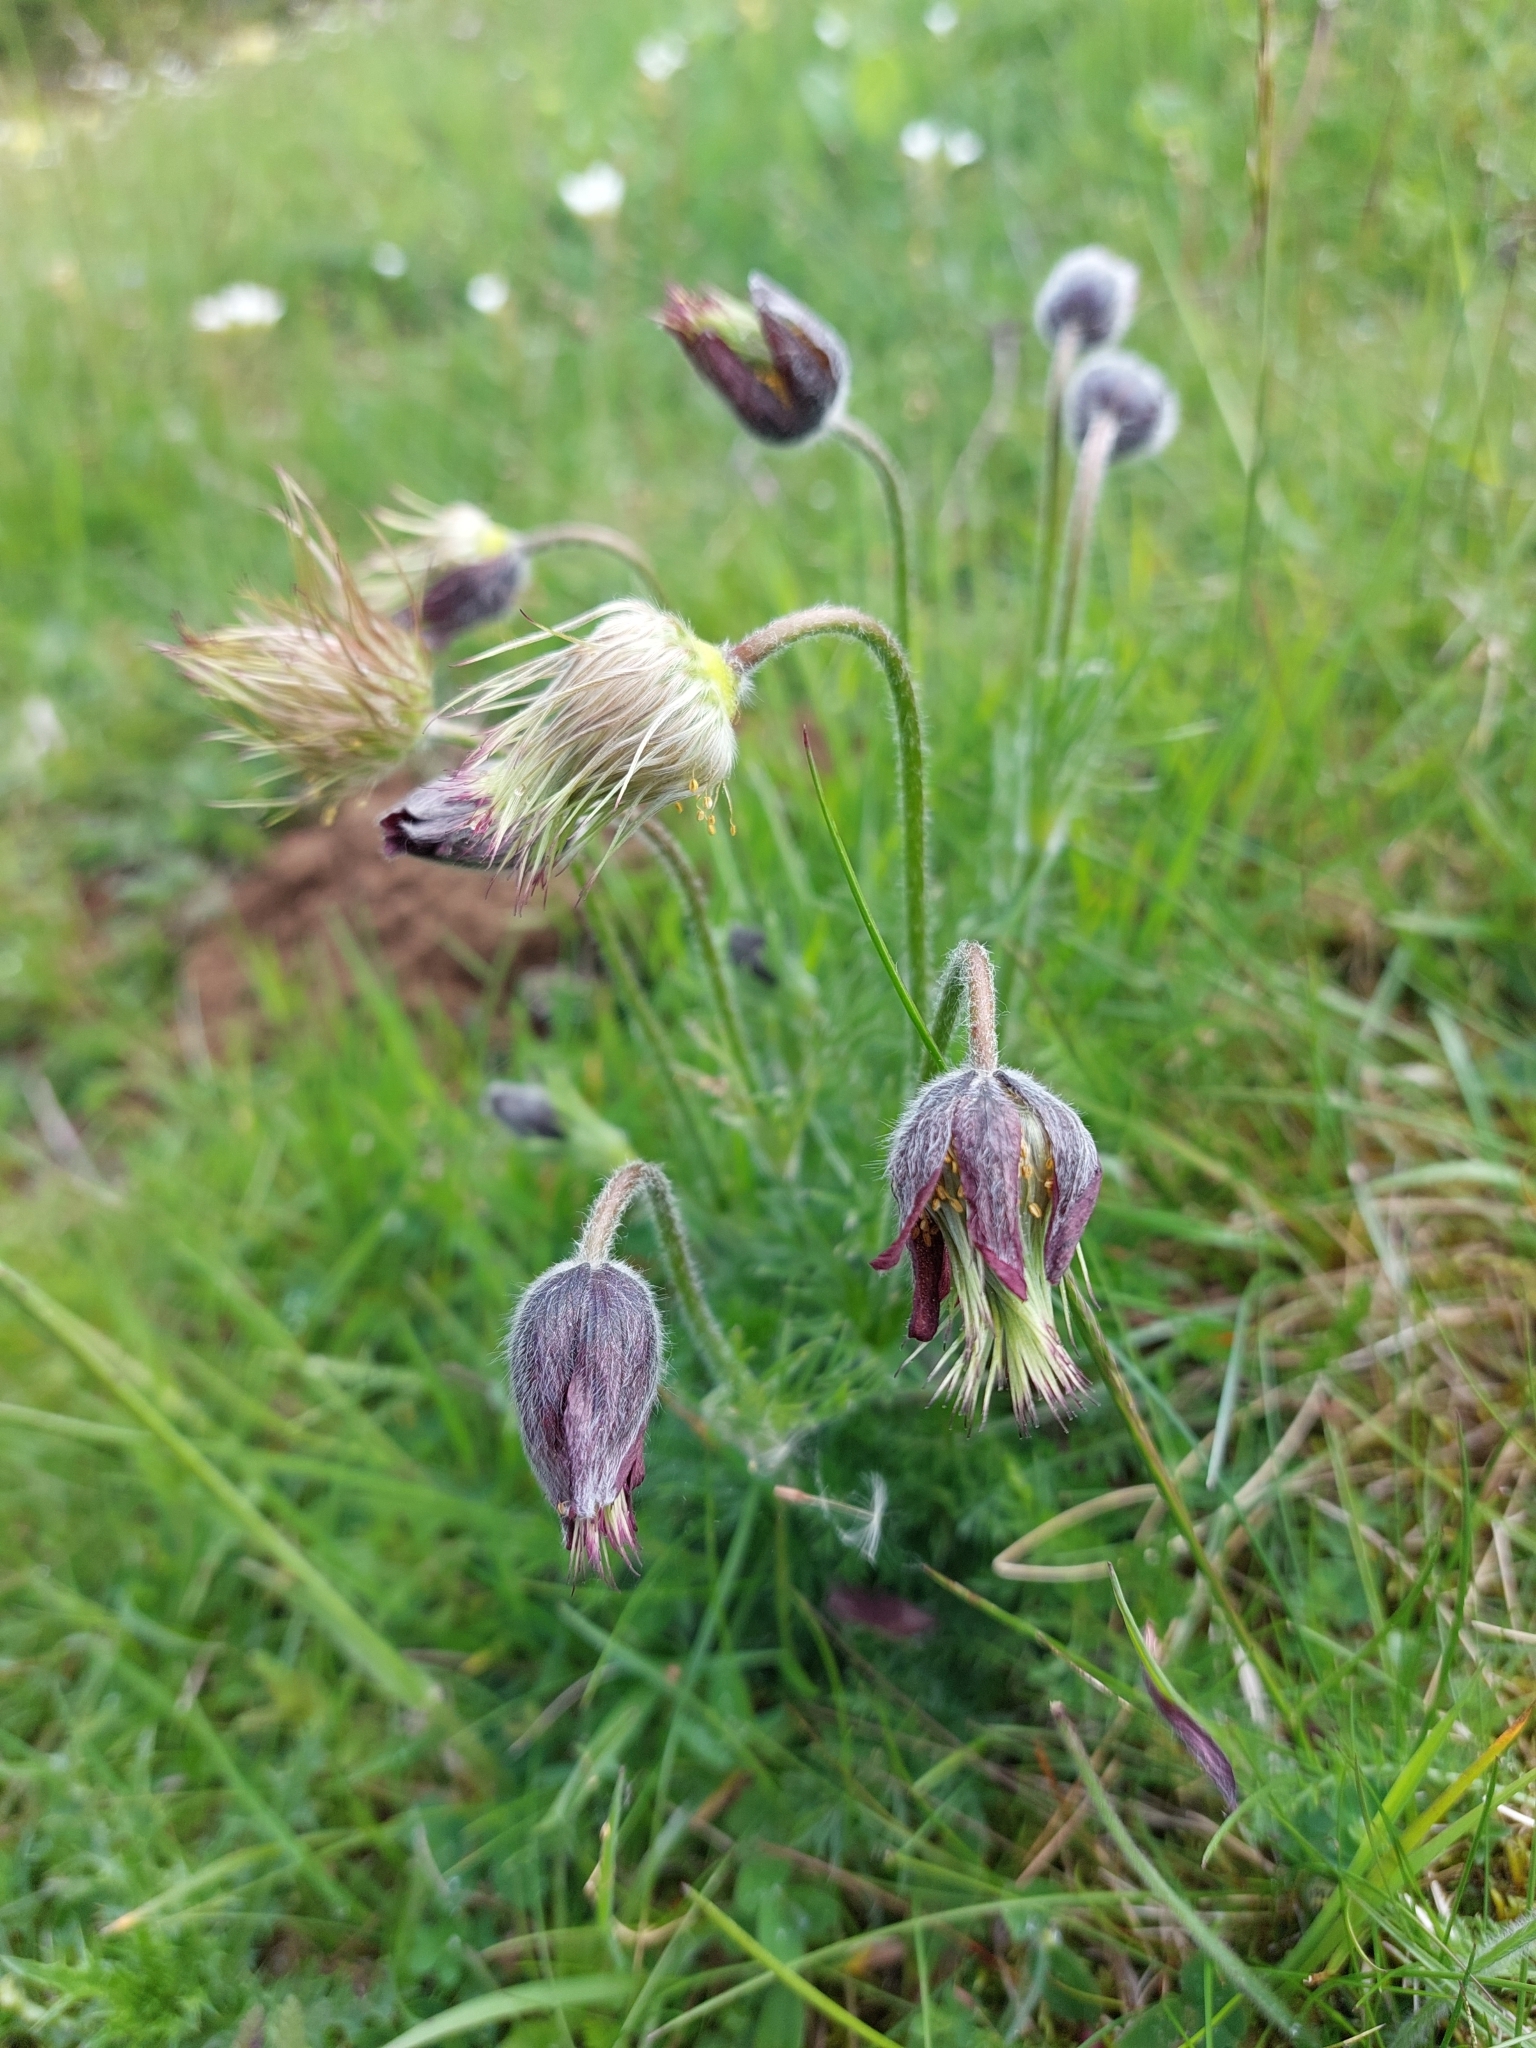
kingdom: Plantae
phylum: Tracheophyta
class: Magnoliopsida
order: Ranunculales
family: Ranunculaceae
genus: Pulsatilla
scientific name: Pulsatilla rubra
